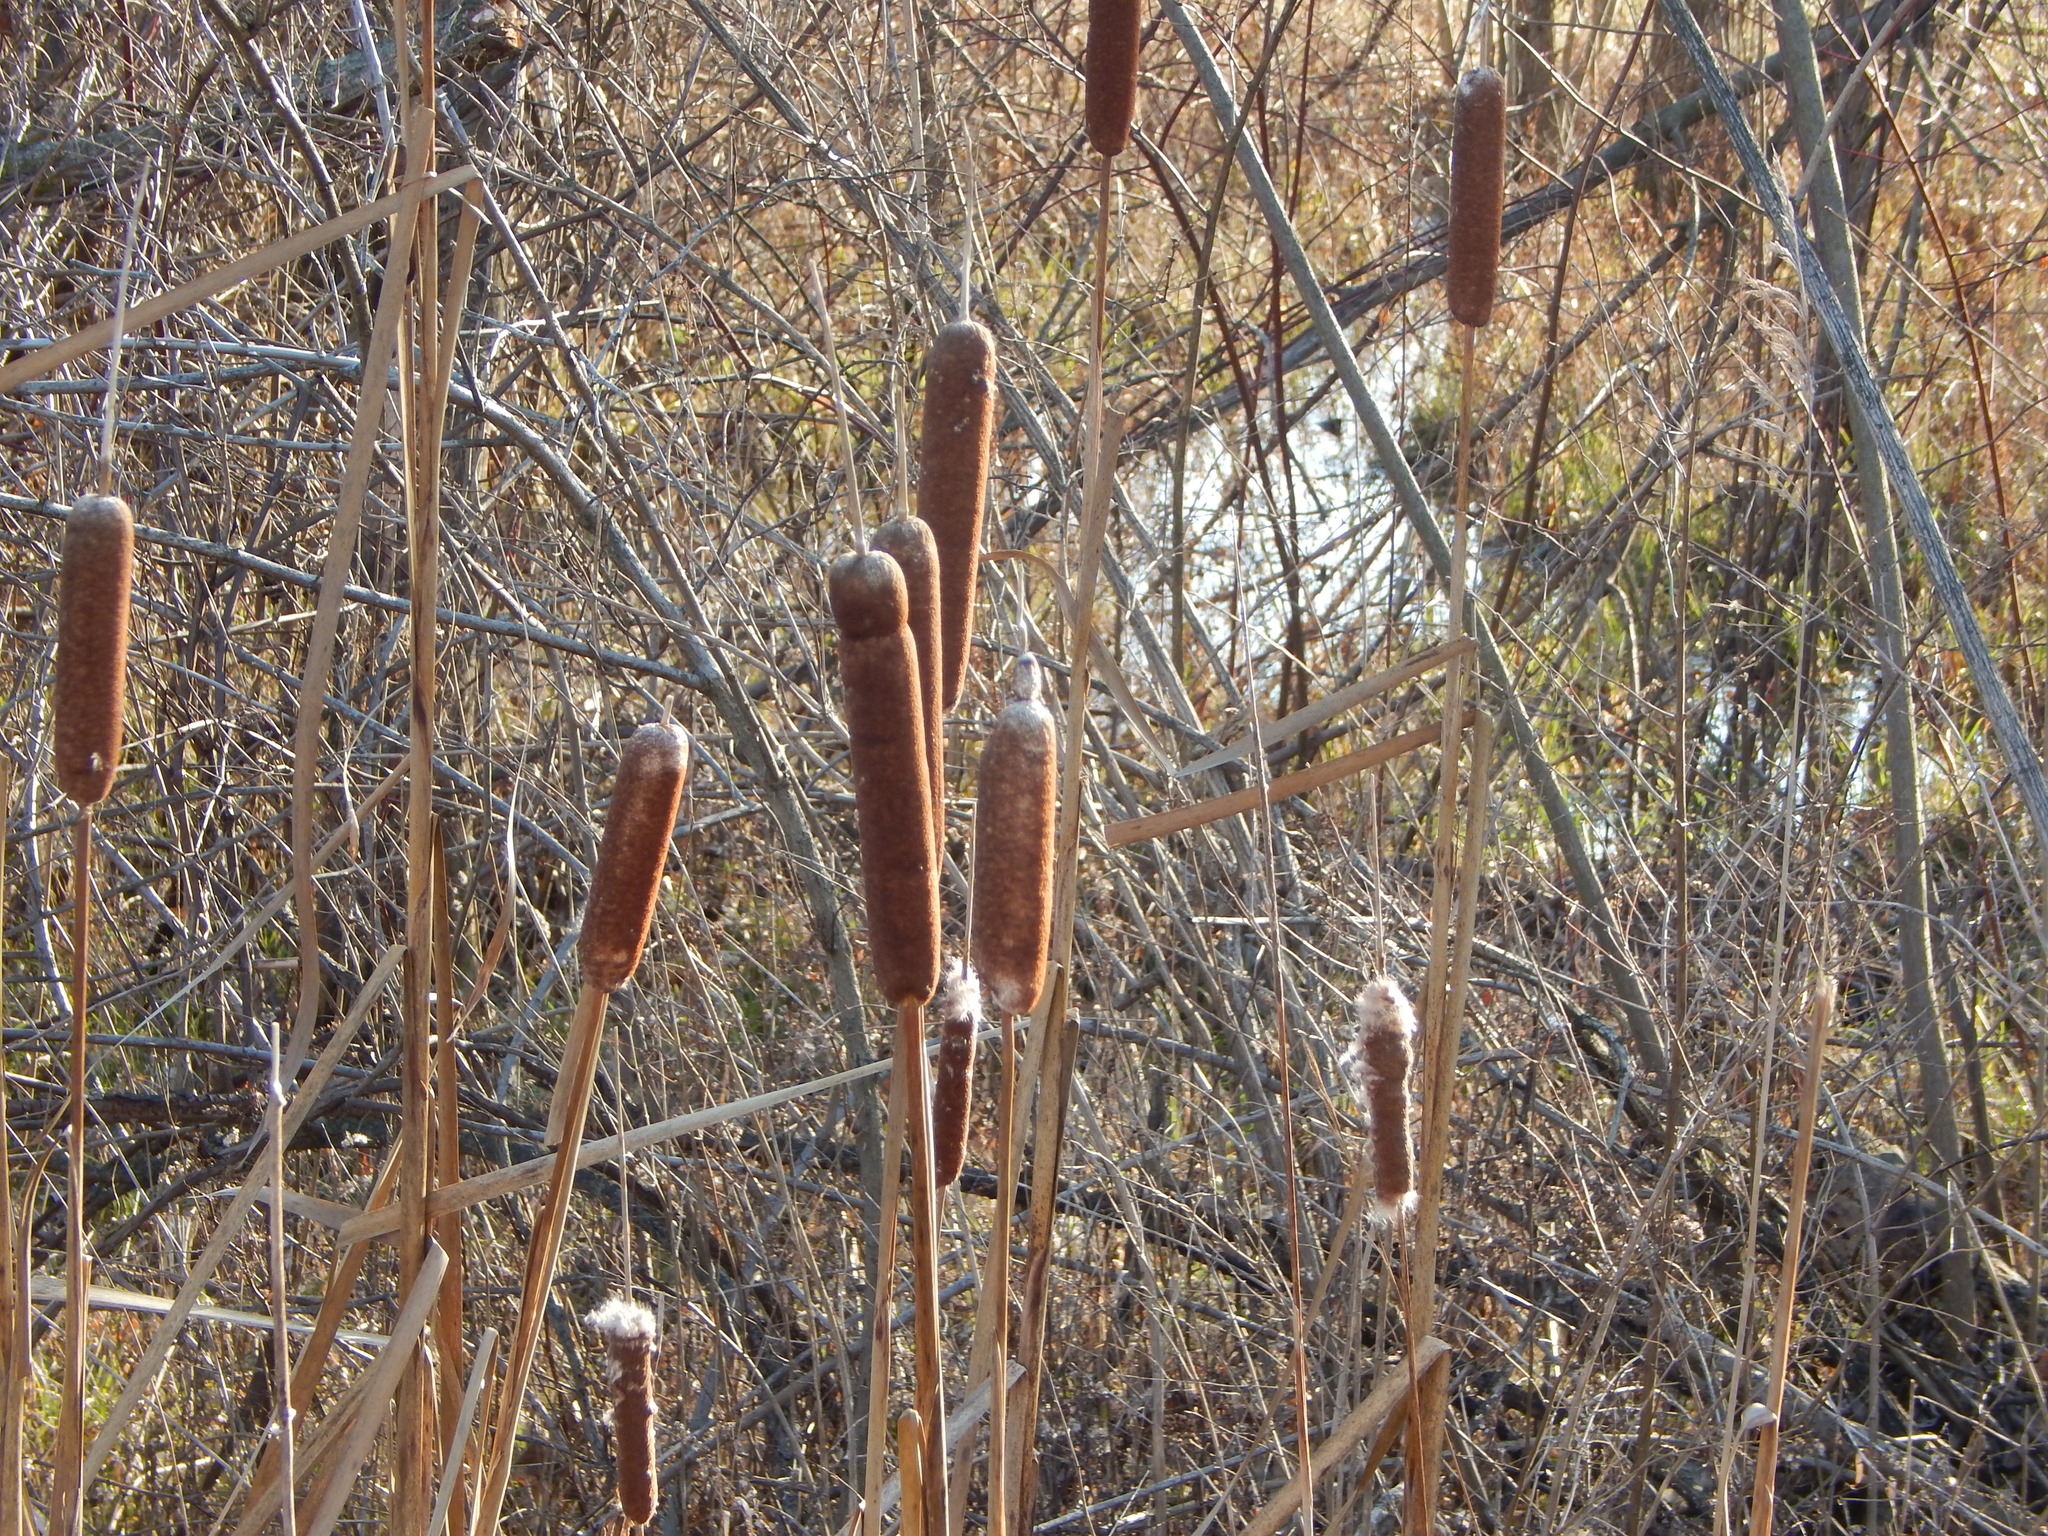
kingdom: Plantae
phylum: Tracheophyta
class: Liliopsida
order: Poales
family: Typhaceae
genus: Typha
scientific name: Typha latifolia
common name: Broadleaf cattail
